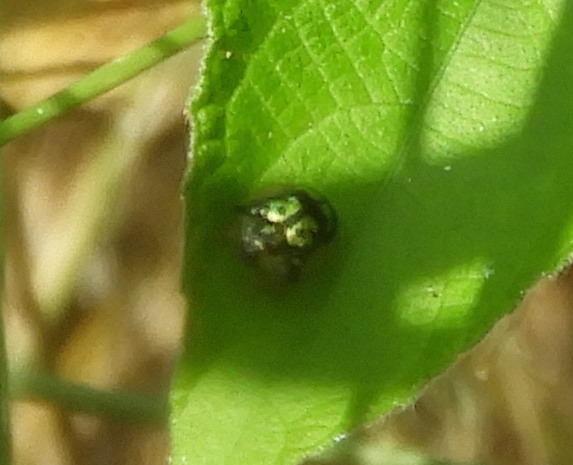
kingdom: Animalia
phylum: Arthropoda
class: Insecta
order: Coleoptera
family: Chrysomelidae
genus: Deloyala
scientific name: Deloyala lecontei
